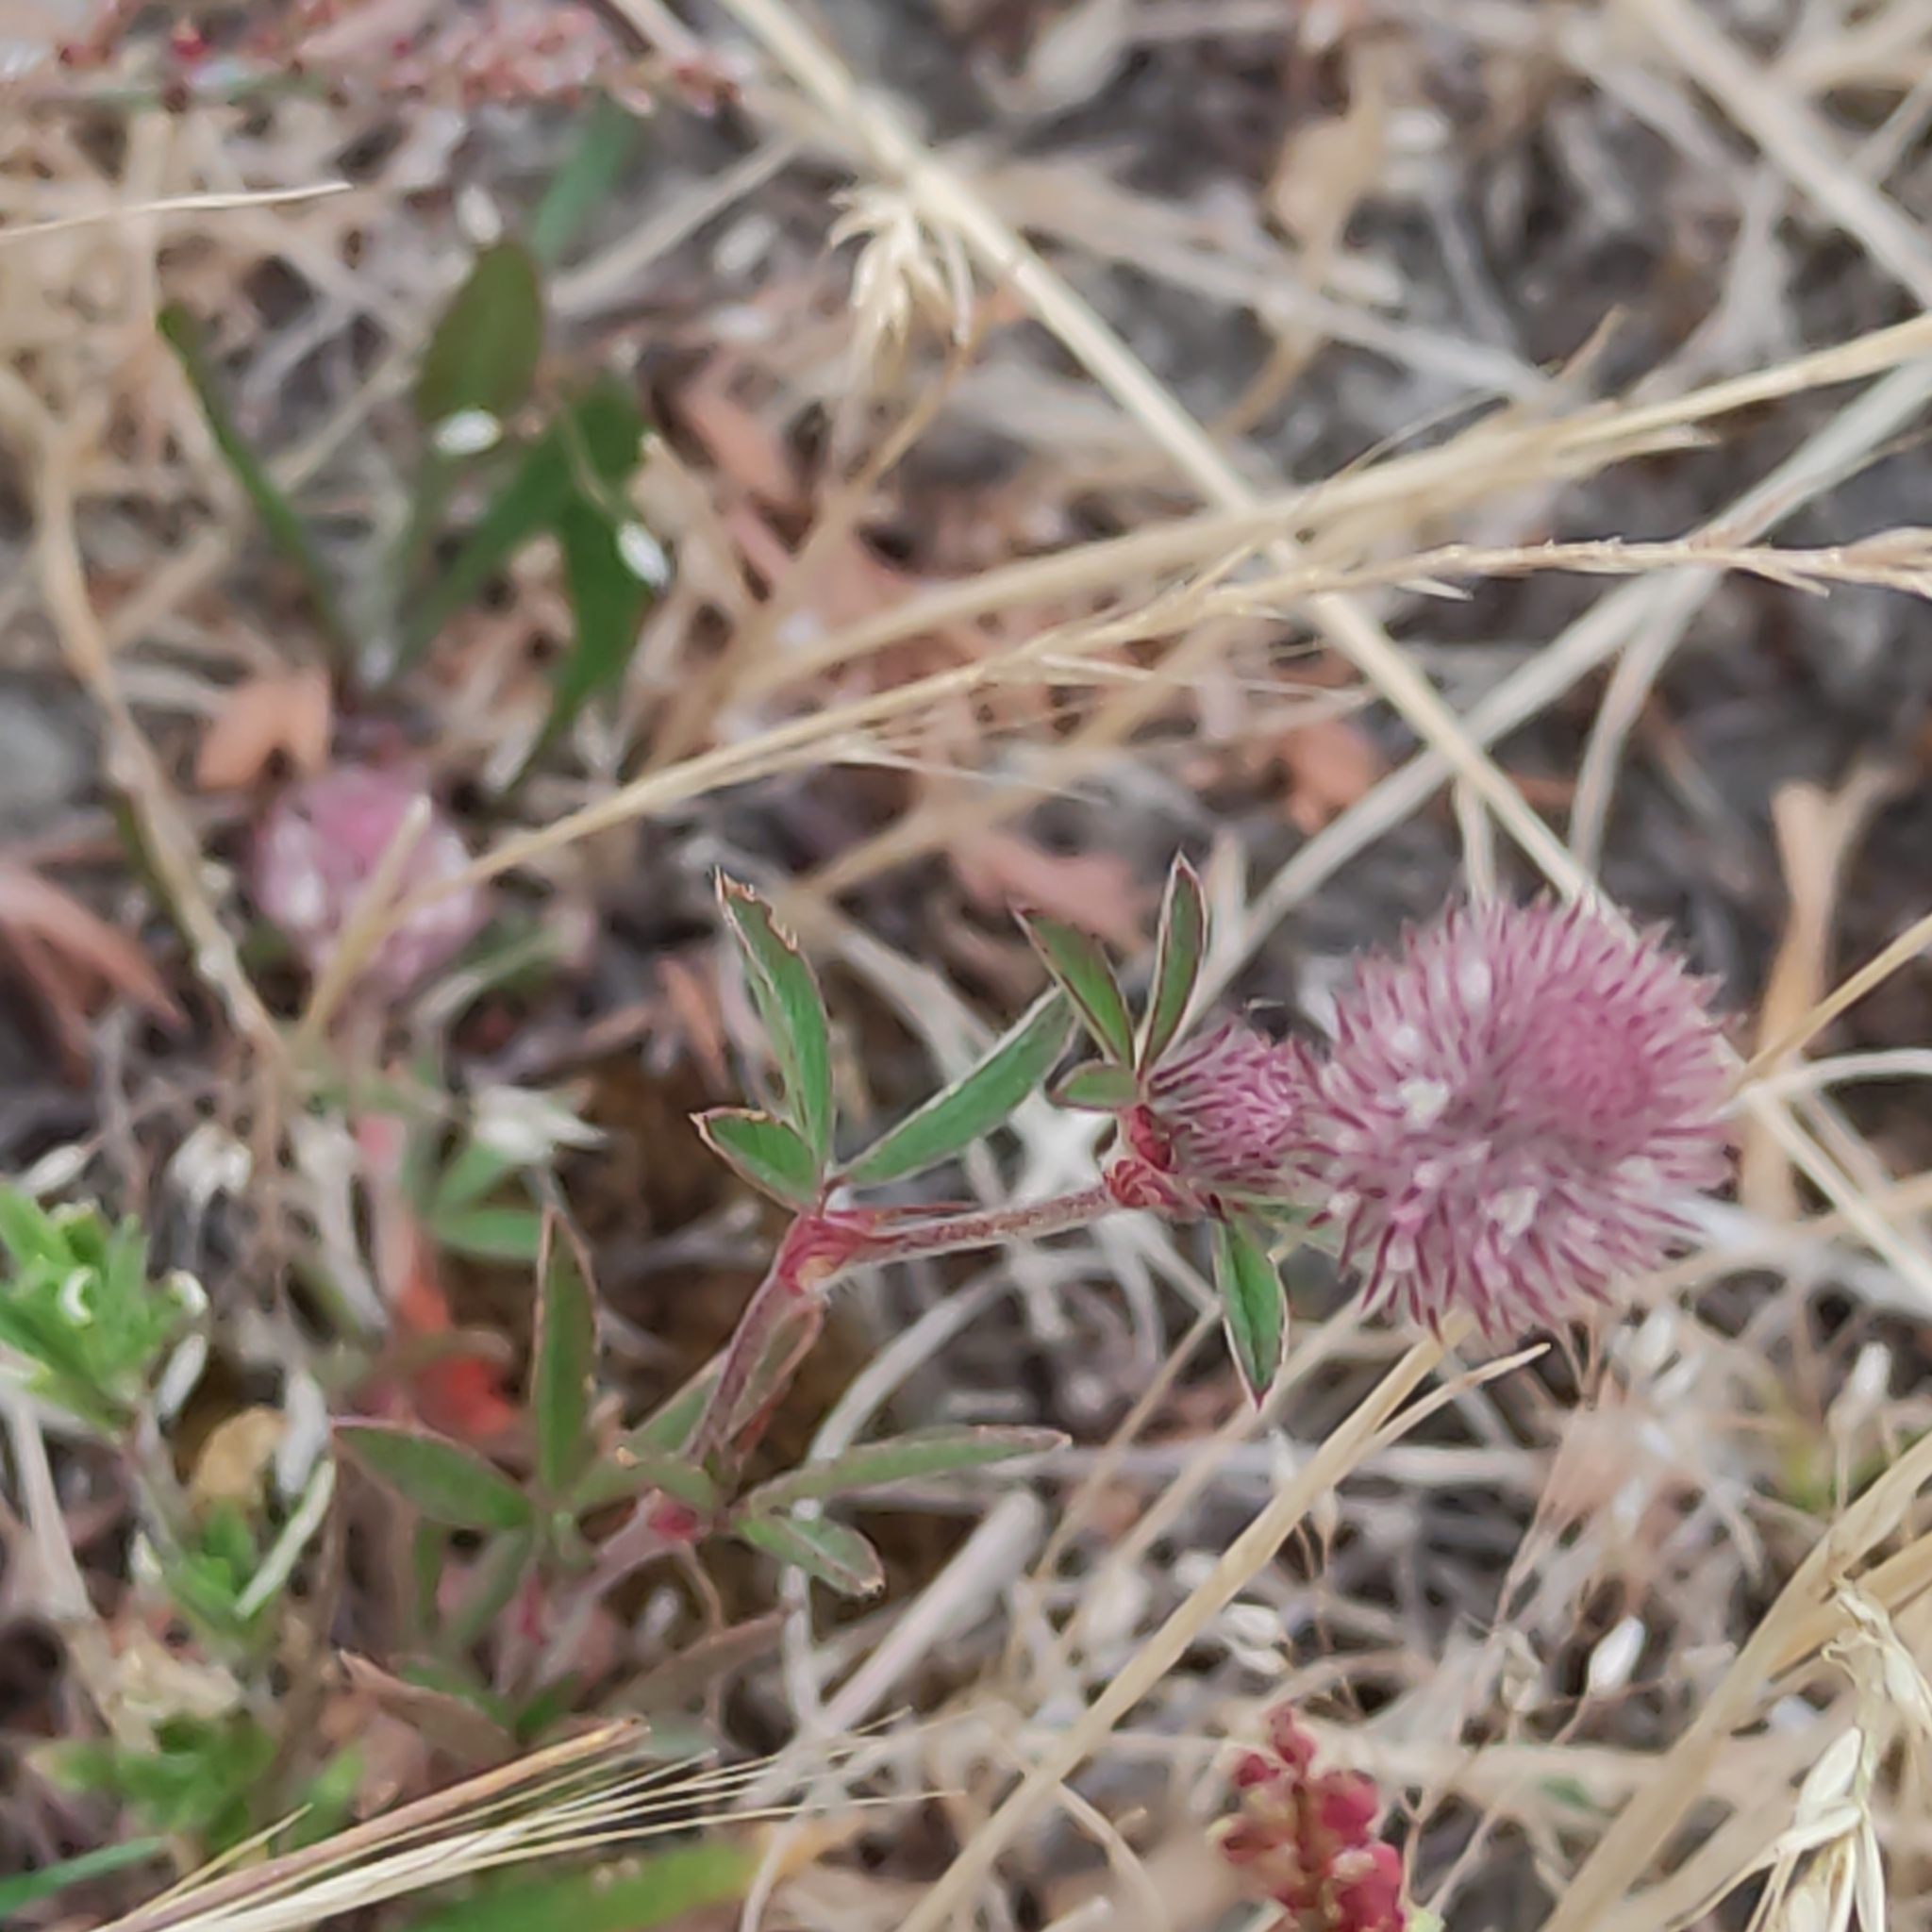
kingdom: Plantae
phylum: Tracheophyta
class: Magnoliopsida
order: Fabales
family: Fabaceae
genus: Trifolium
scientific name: Trifolium arvense
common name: Hare's-foot clover
